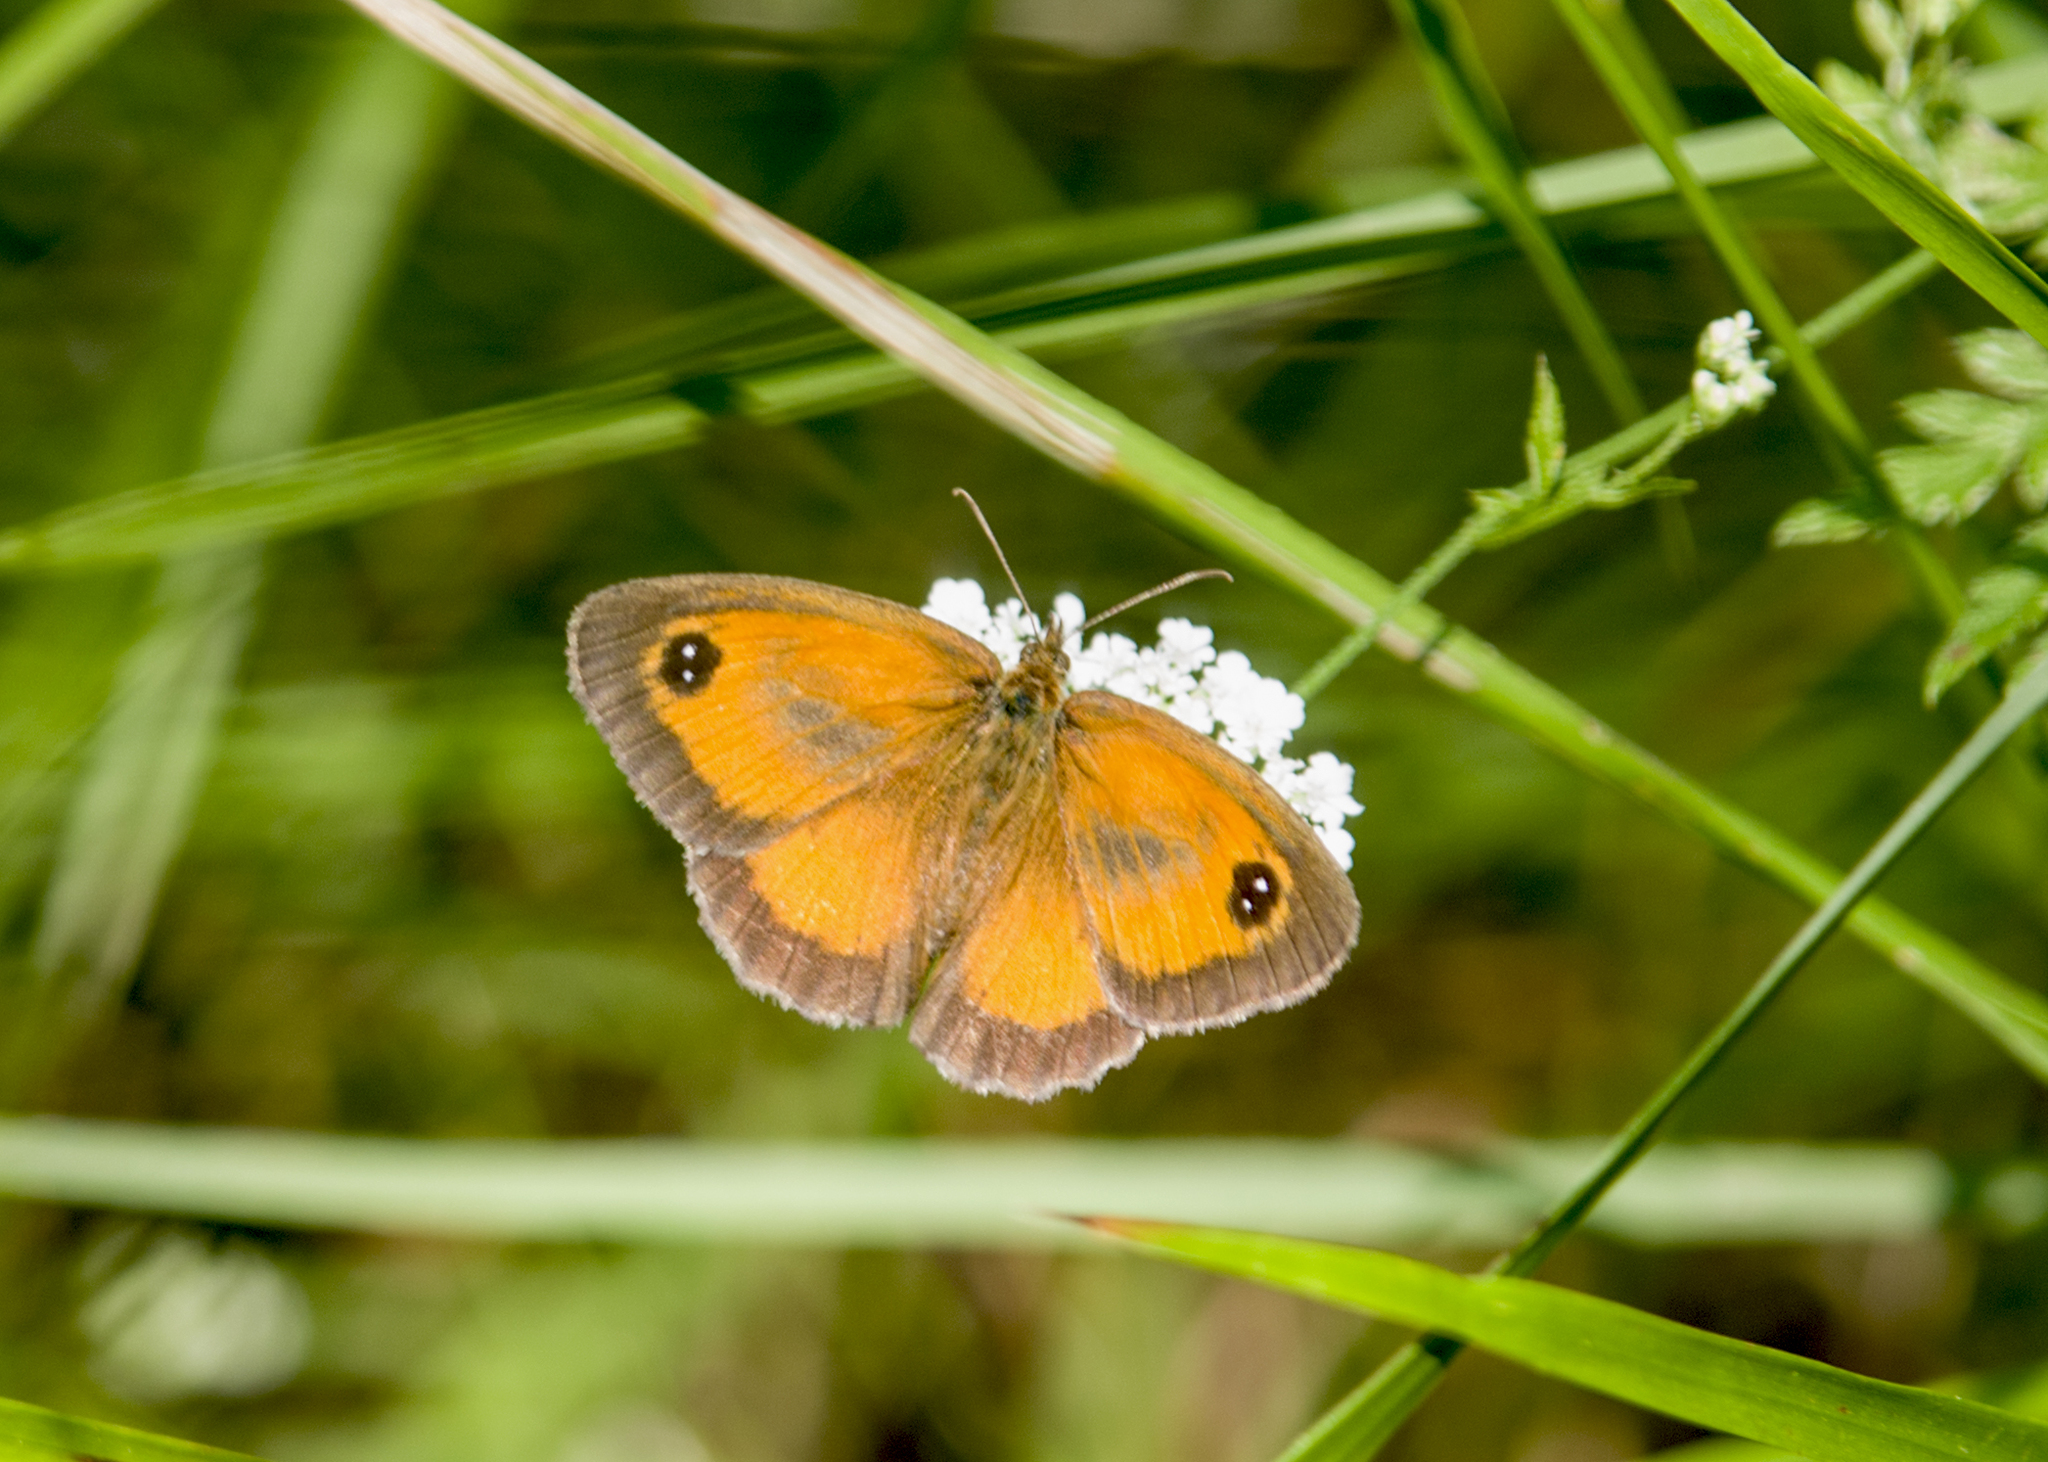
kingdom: Animalia
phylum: Arthropoda
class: Insecta
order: Lepidoptera
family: Nymphalidae
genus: Pyronia
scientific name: Pyronia tithonus
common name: Gatekeeper
